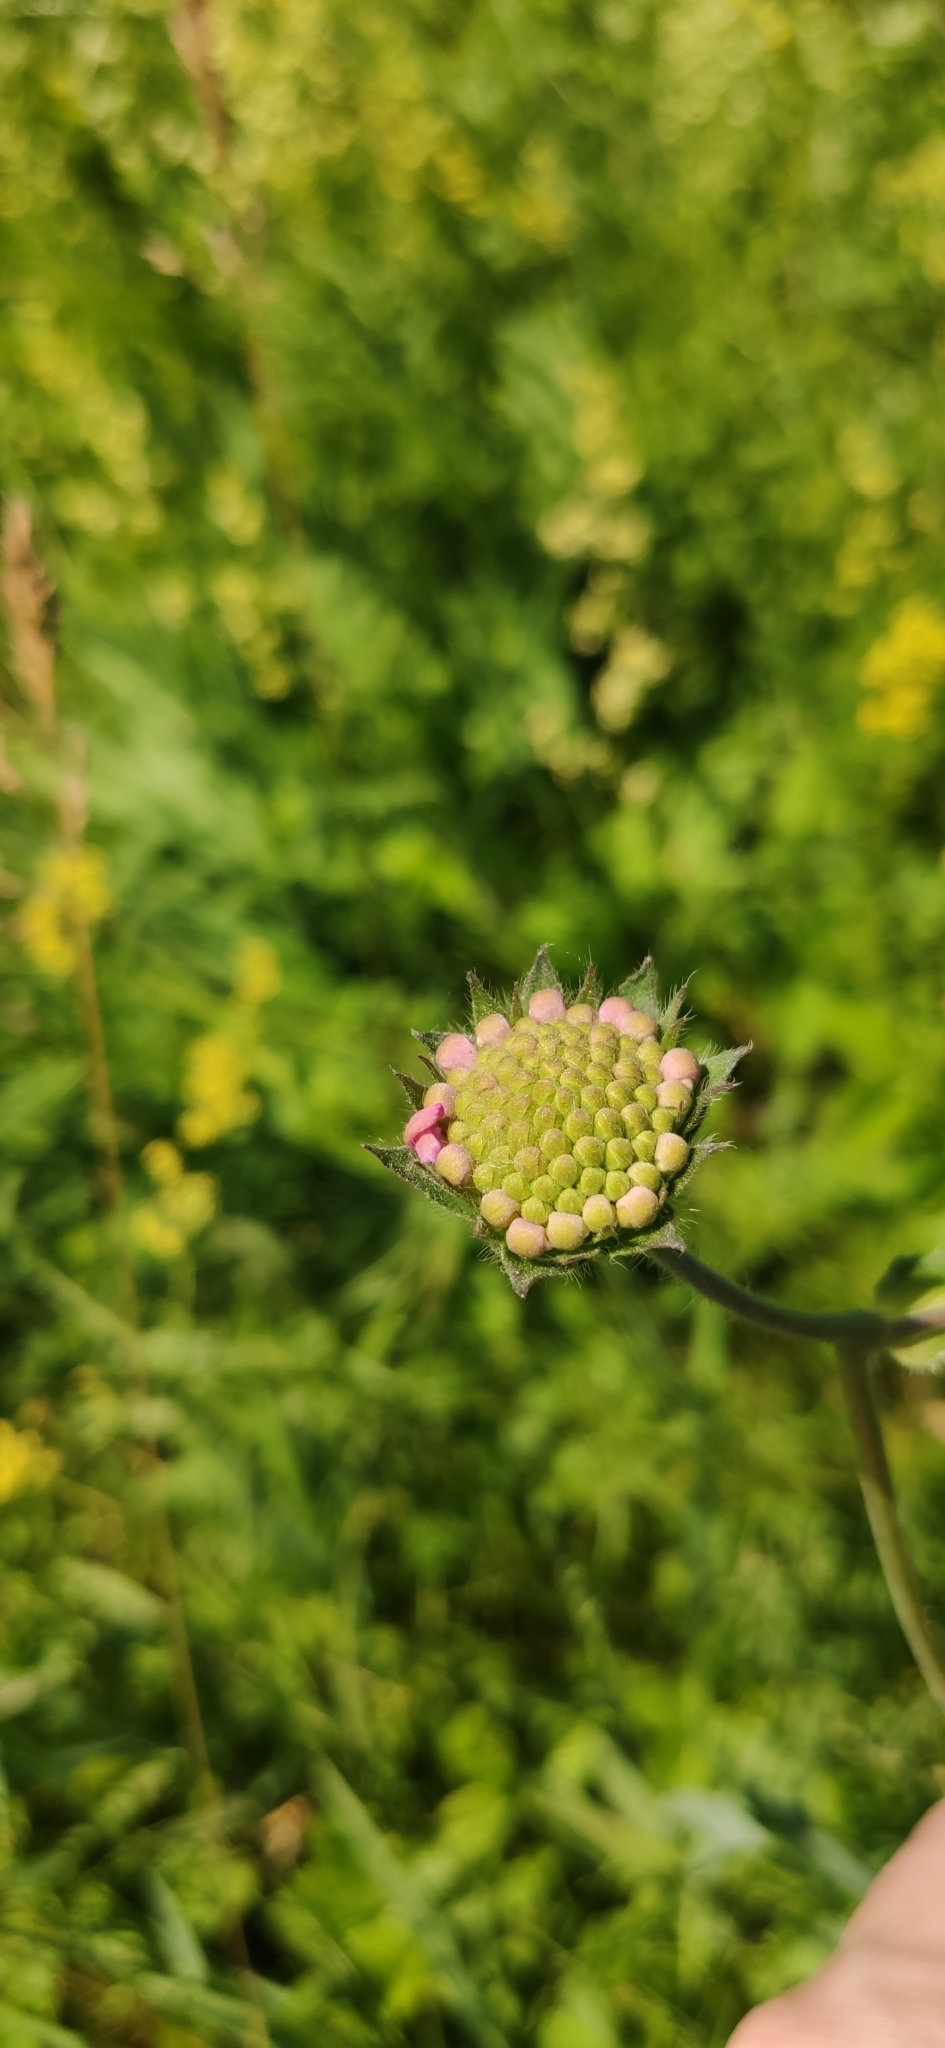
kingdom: Plantae
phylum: Tracheophyta
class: Magnoliopsida
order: Dipsacales
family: Caprifoliaceae
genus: Knautia
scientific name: Knautia arvensis
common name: Field scabiosa
